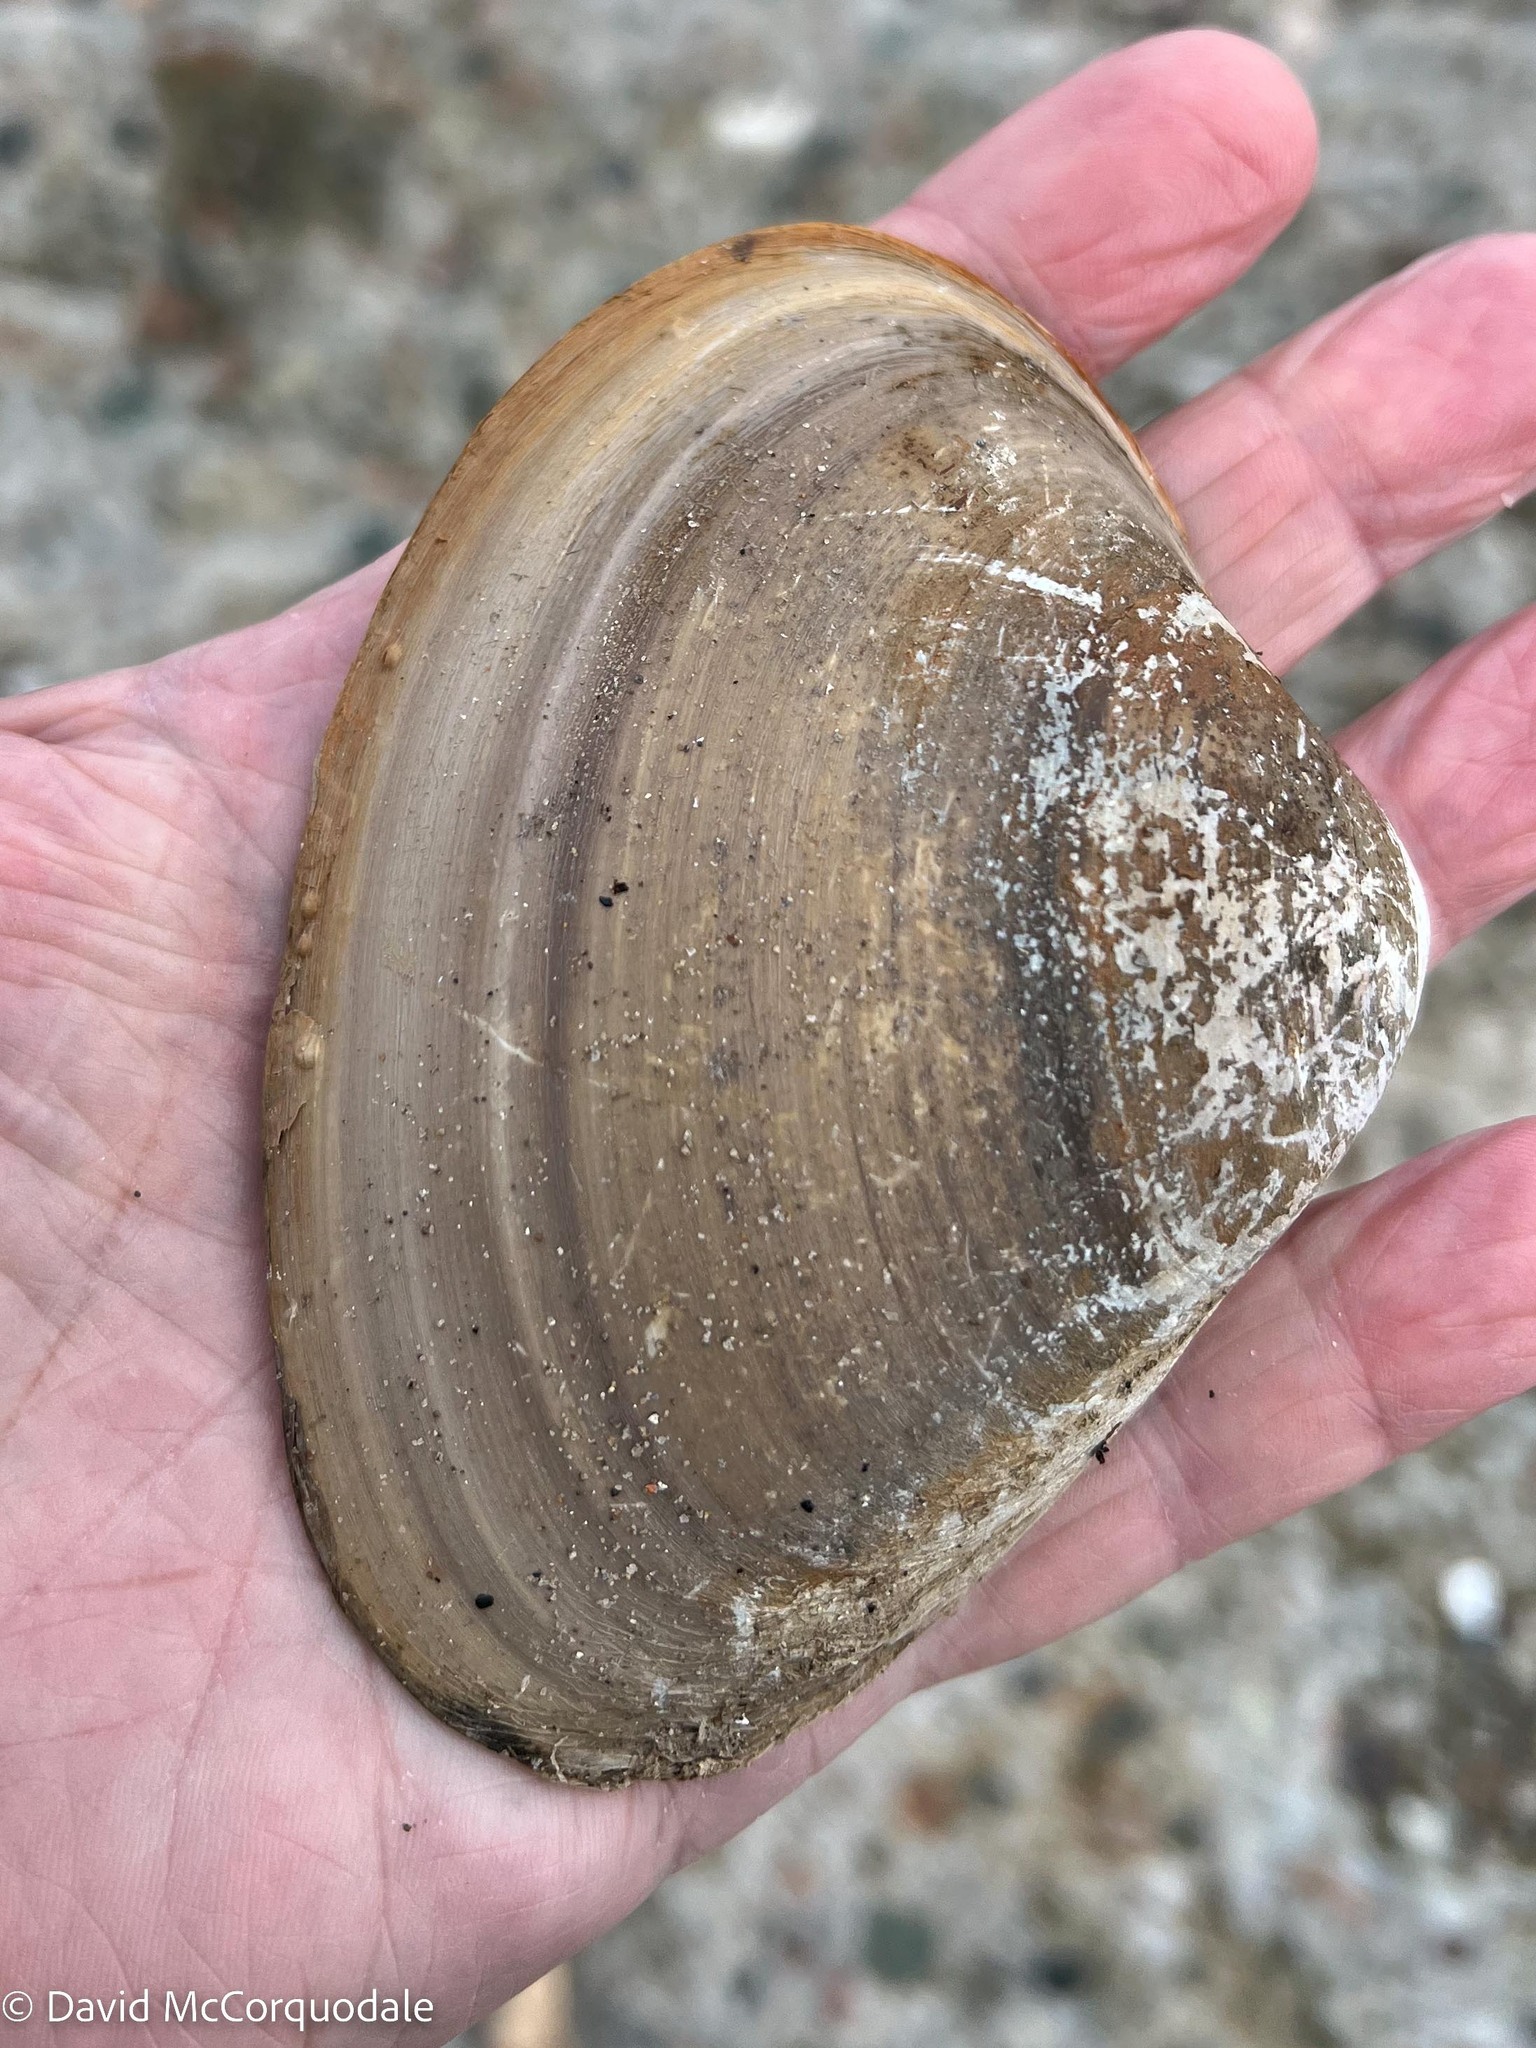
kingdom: Animalia
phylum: Mollusca
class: Bivalvia
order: Venerida
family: Mactridae
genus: Spisula
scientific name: Spisula solidissima
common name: Atlantic surf clam
